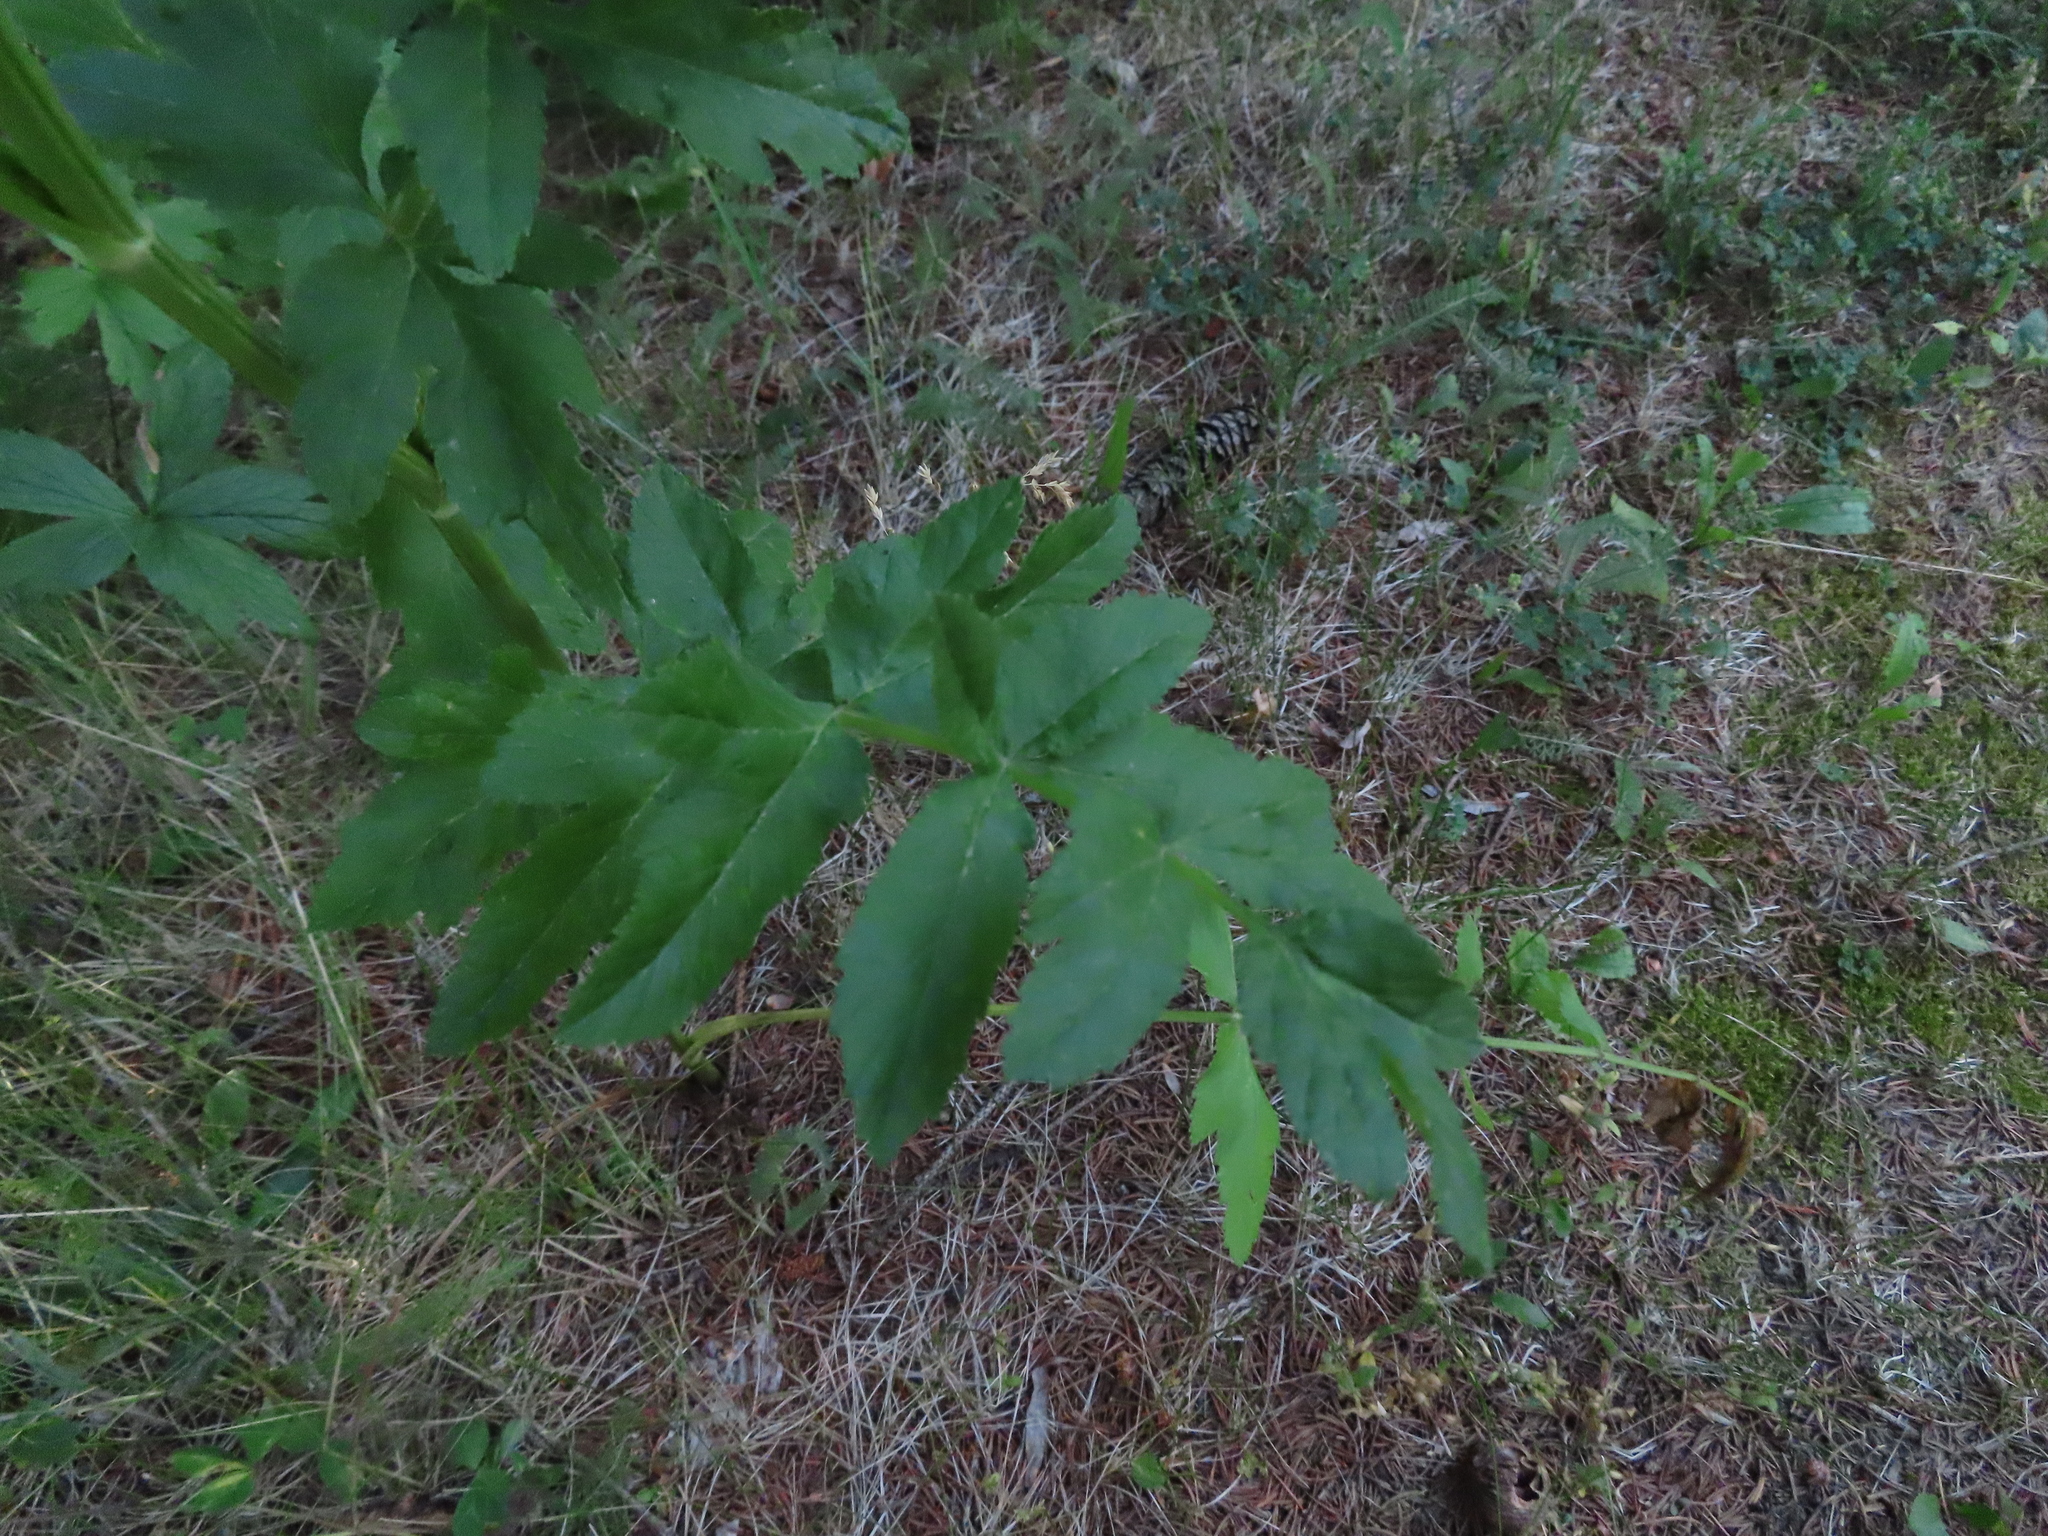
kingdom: Plantae
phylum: Tracheophyta
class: Magnoliopsida
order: Apiales
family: Apiaceae
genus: Pastinaca
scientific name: Pastinaca sativa
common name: Wild parsnip
